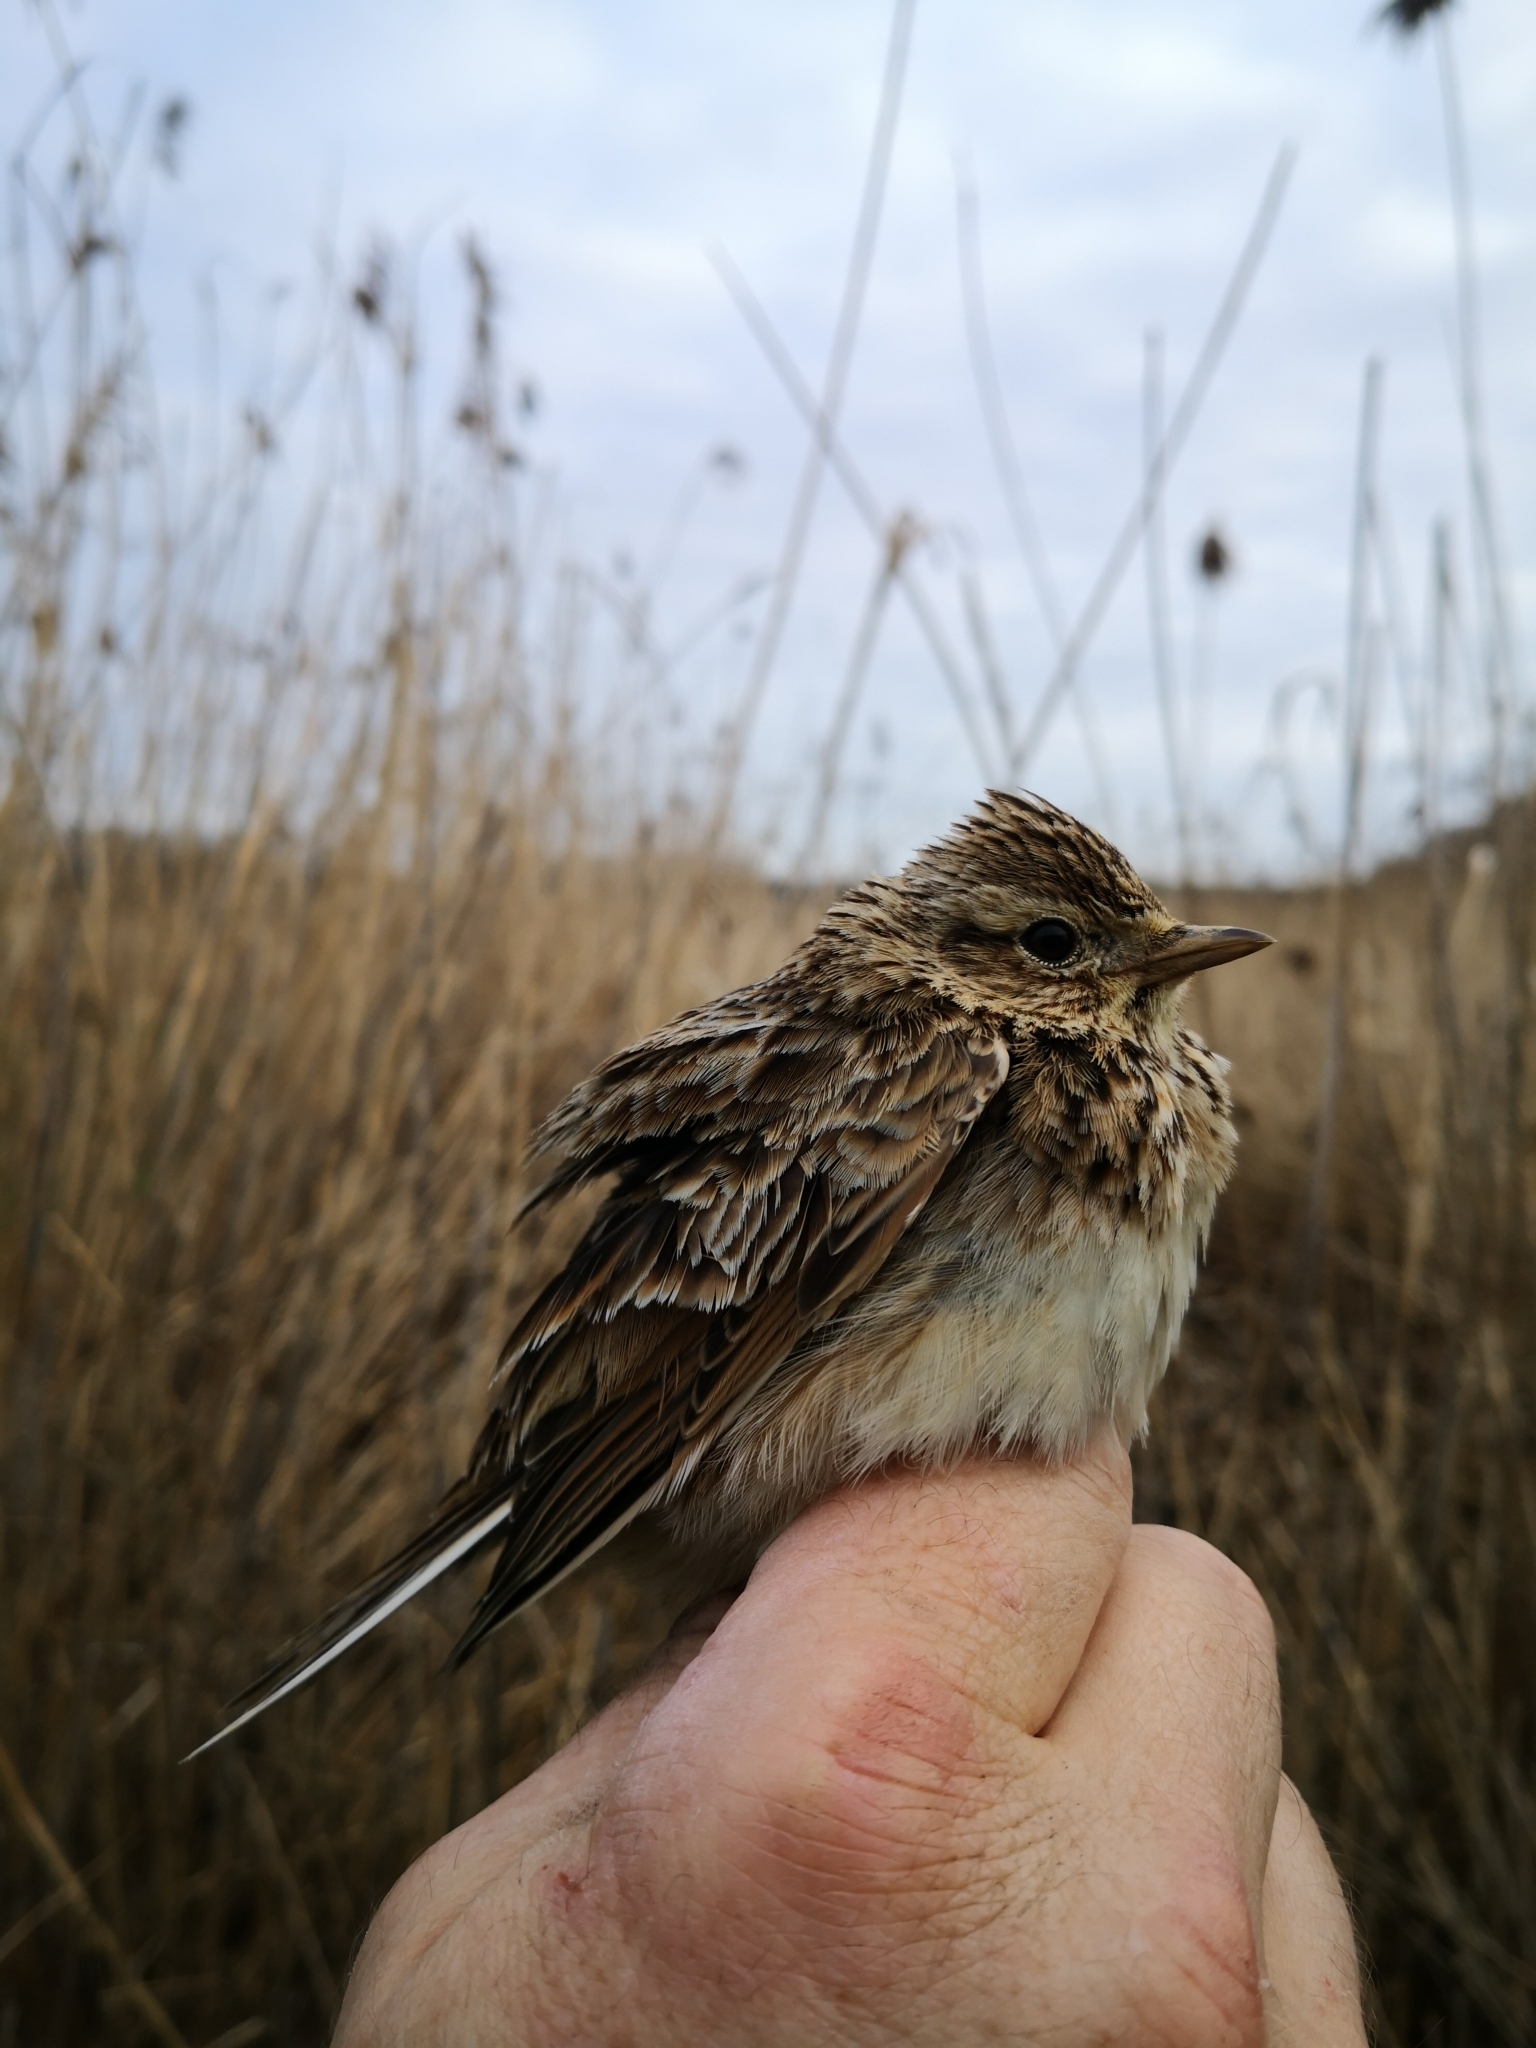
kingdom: Animalia
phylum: Chordata
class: Aves
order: Passeriformes
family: Alaudidae
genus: Alauda
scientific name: Alauda arvensis
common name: Eurasian skylark
